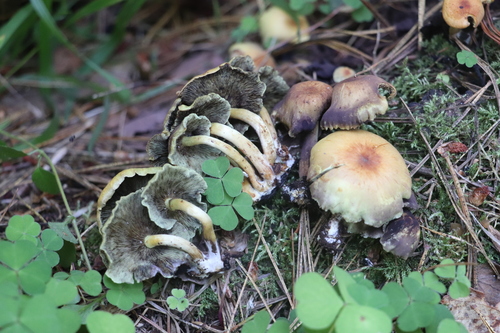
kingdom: Fungi
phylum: Basidiomycota
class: Agaricomycetes
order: Agaricales
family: Strophariaceae
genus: Hypholoma
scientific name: Hypholoma fasciculare
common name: Sulphur tuft
